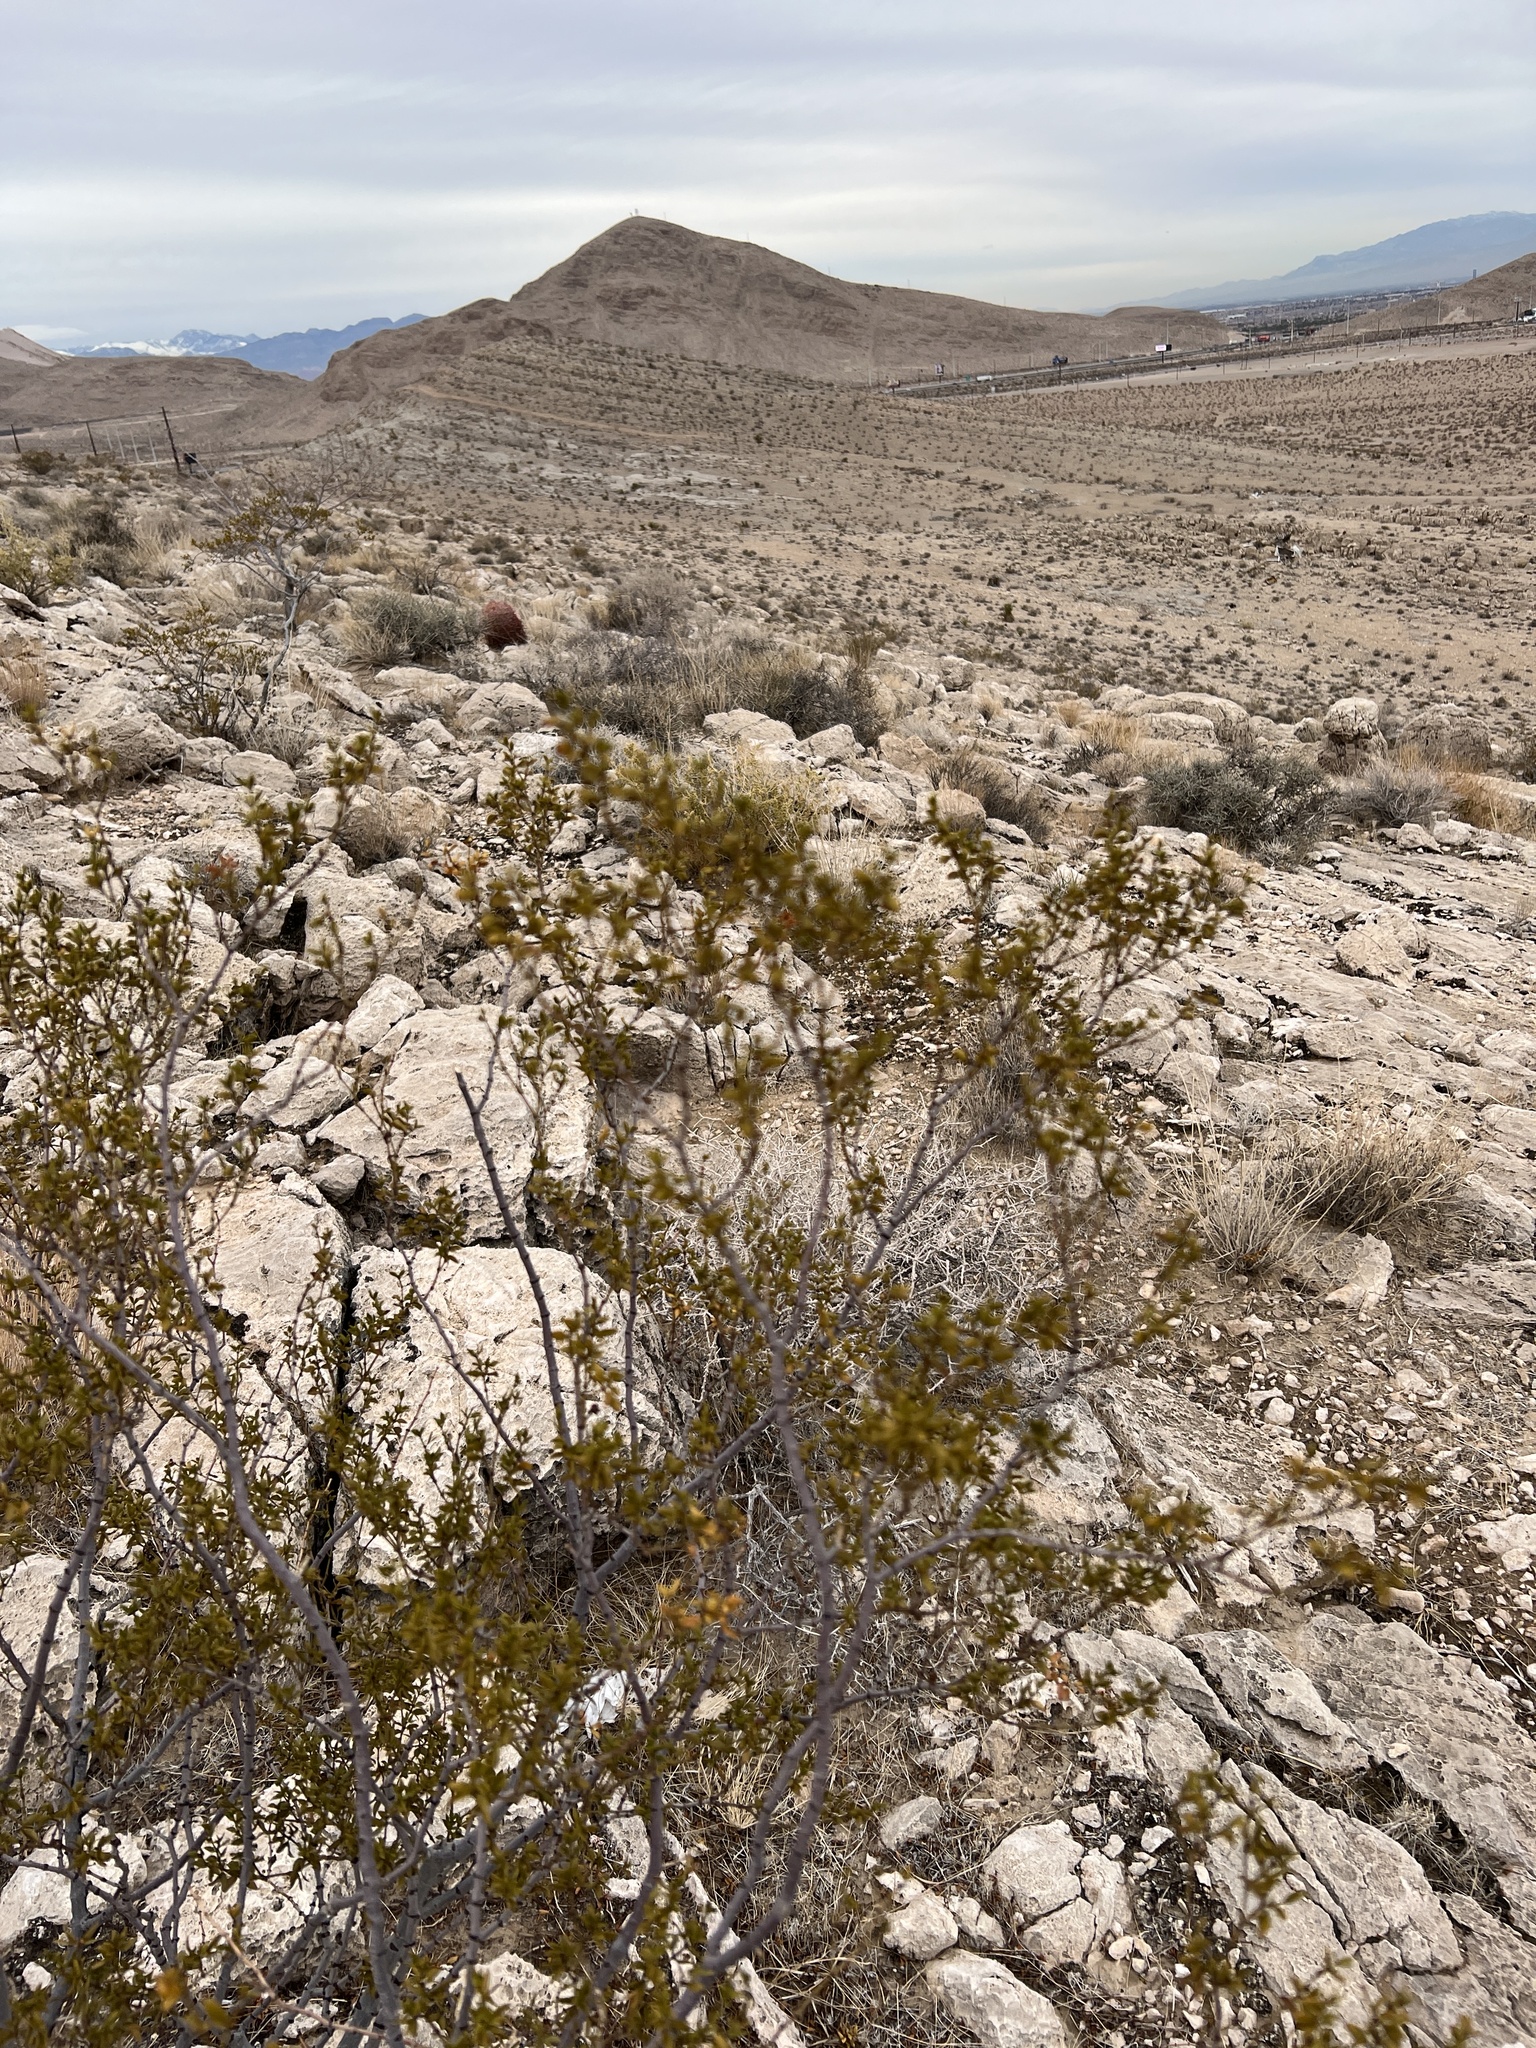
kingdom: Plantae
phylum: Tracheophyta
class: Magnoliopsida
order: Zygophyllales
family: Zygophyllaceae
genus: Larrea
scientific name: Larrea tridentata
